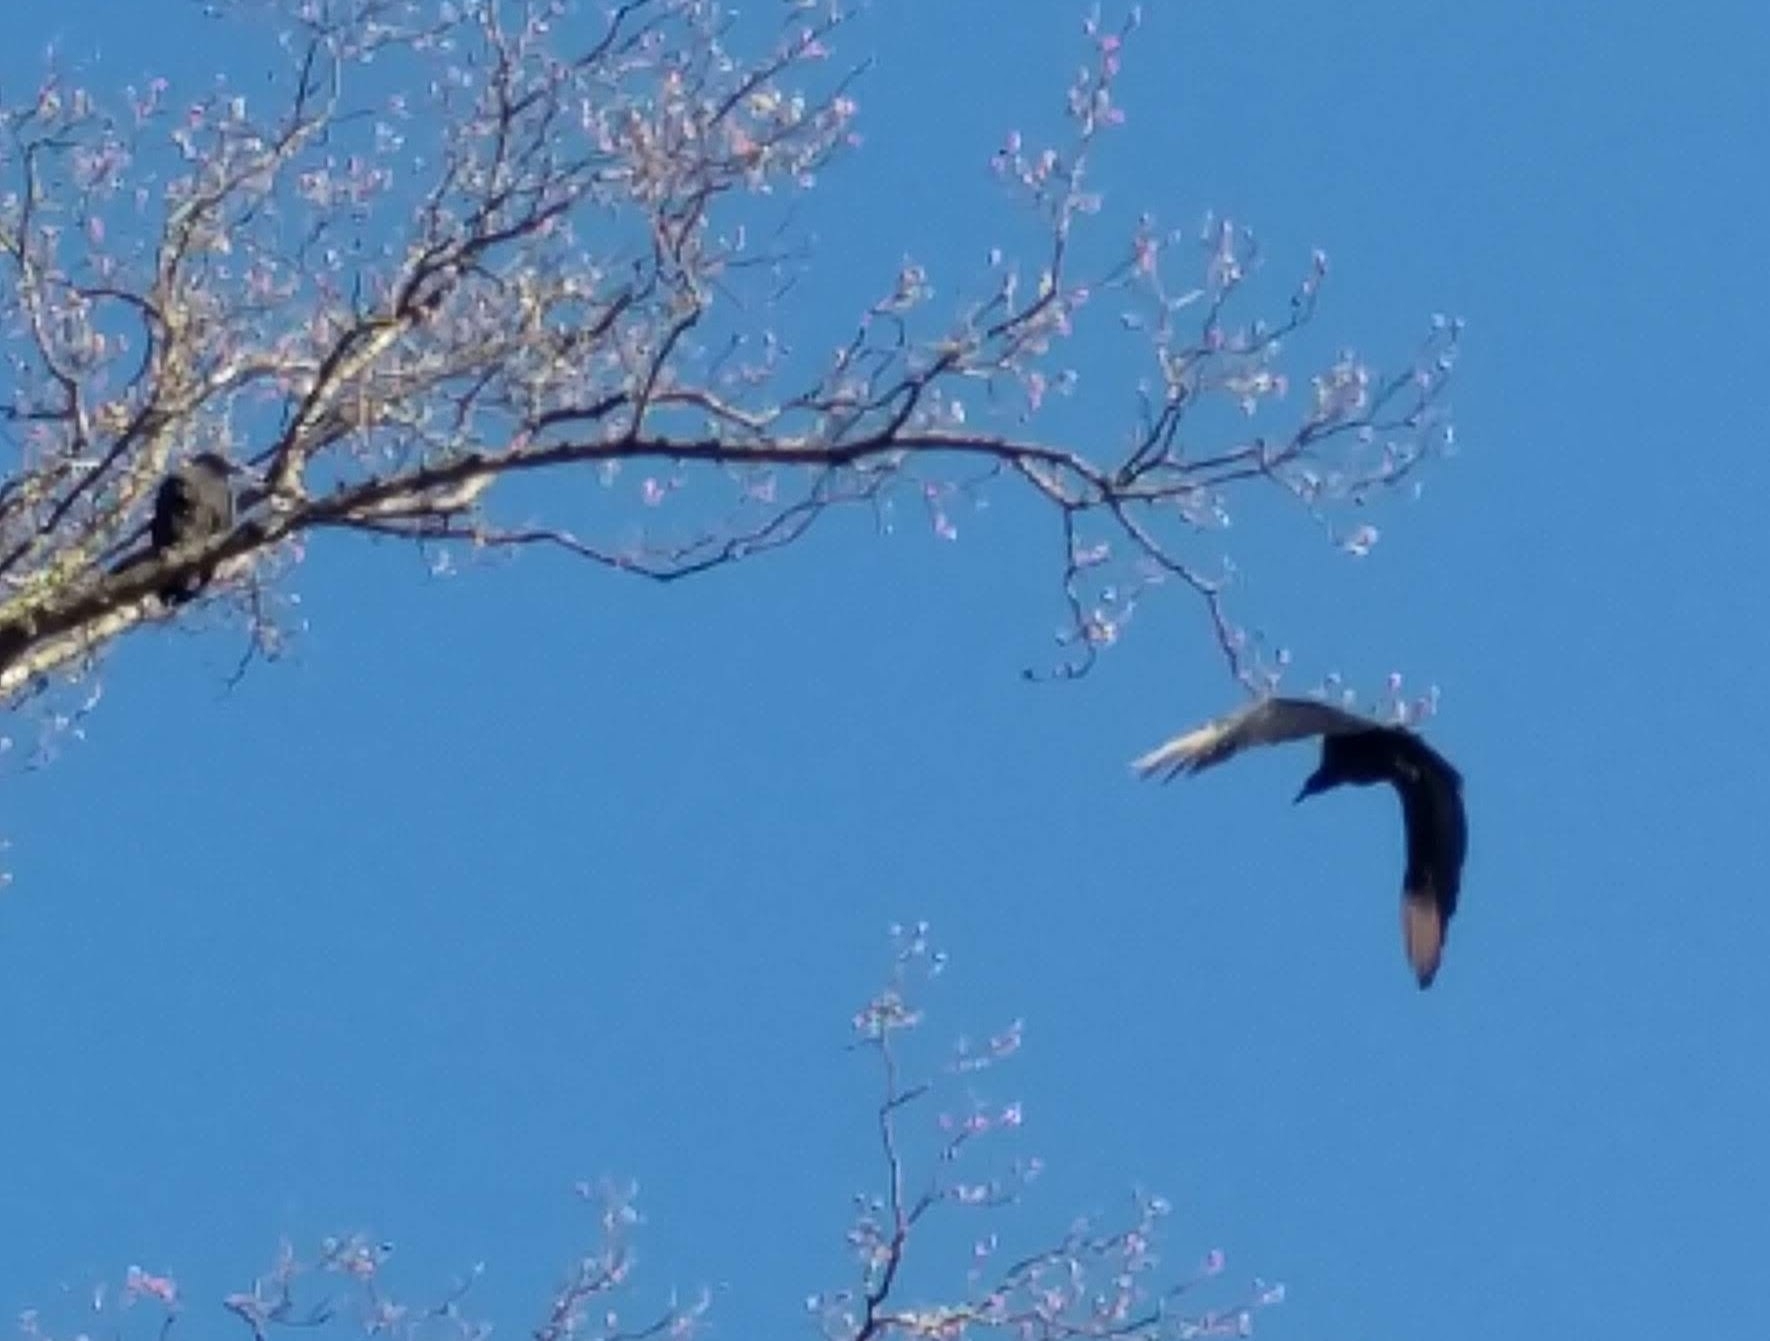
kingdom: Animalia
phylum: Chordata
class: Aves
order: Accipitriformes
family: Cathartidae
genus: Coragyps
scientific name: Coragyps atratus
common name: Black vulture
